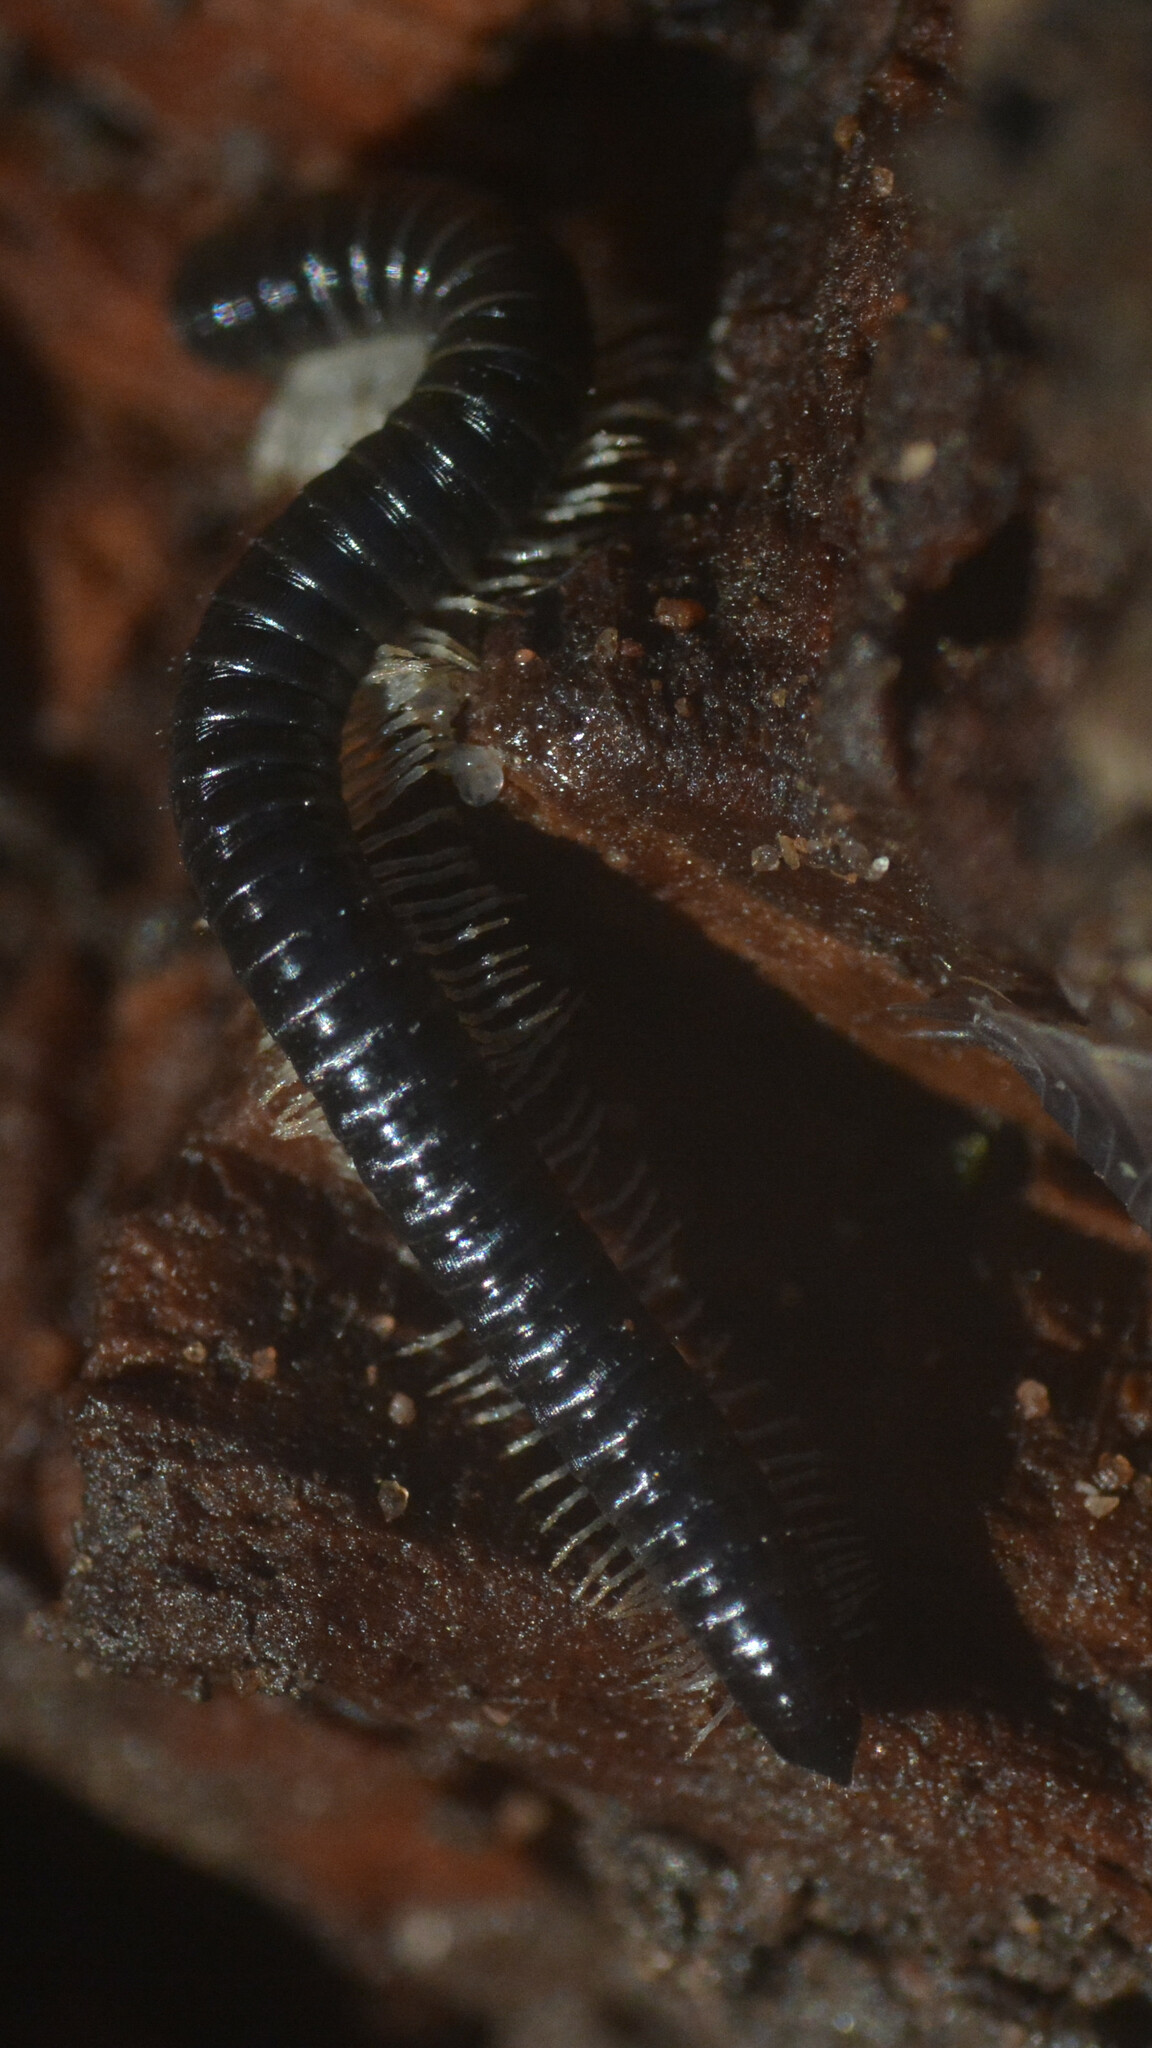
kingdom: Animalia
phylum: Arthropoda
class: Diplopoda
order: Julida
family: Julidae
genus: Tachypodoiulus
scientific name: Tachypodoiulus niger
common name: White-legged snake millipede
